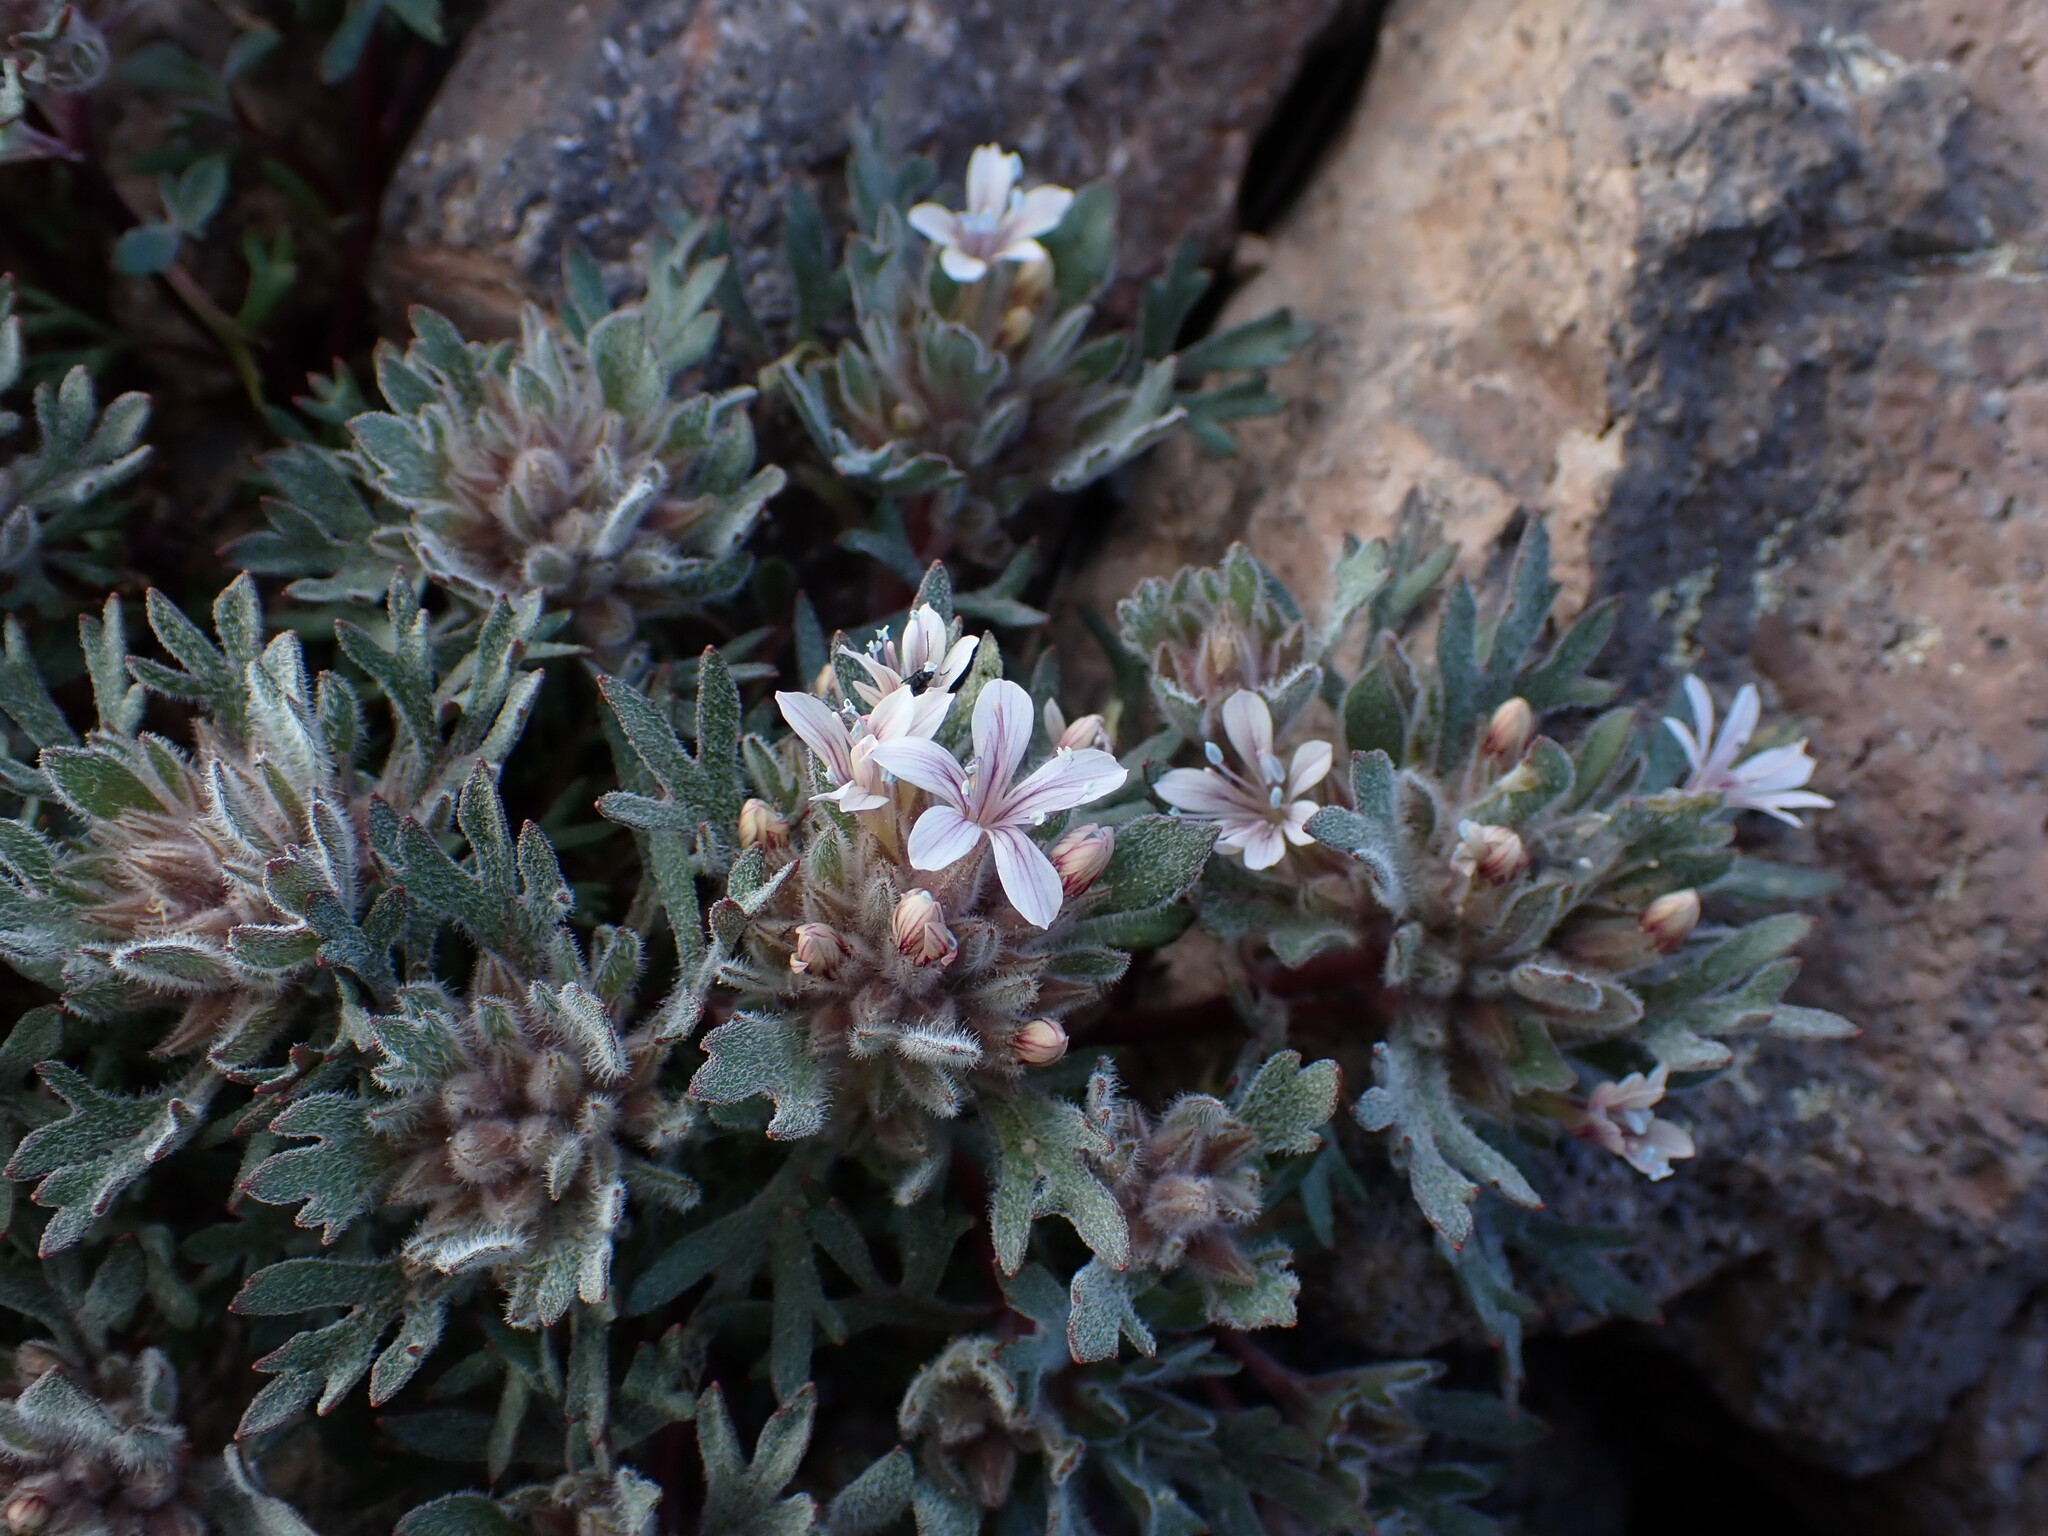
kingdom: Plantae
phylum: Tracheophyta
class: Magnoliopsida
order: Ericales
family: Polemoniaceae
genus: Collomia
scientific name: Collomia larsenii
